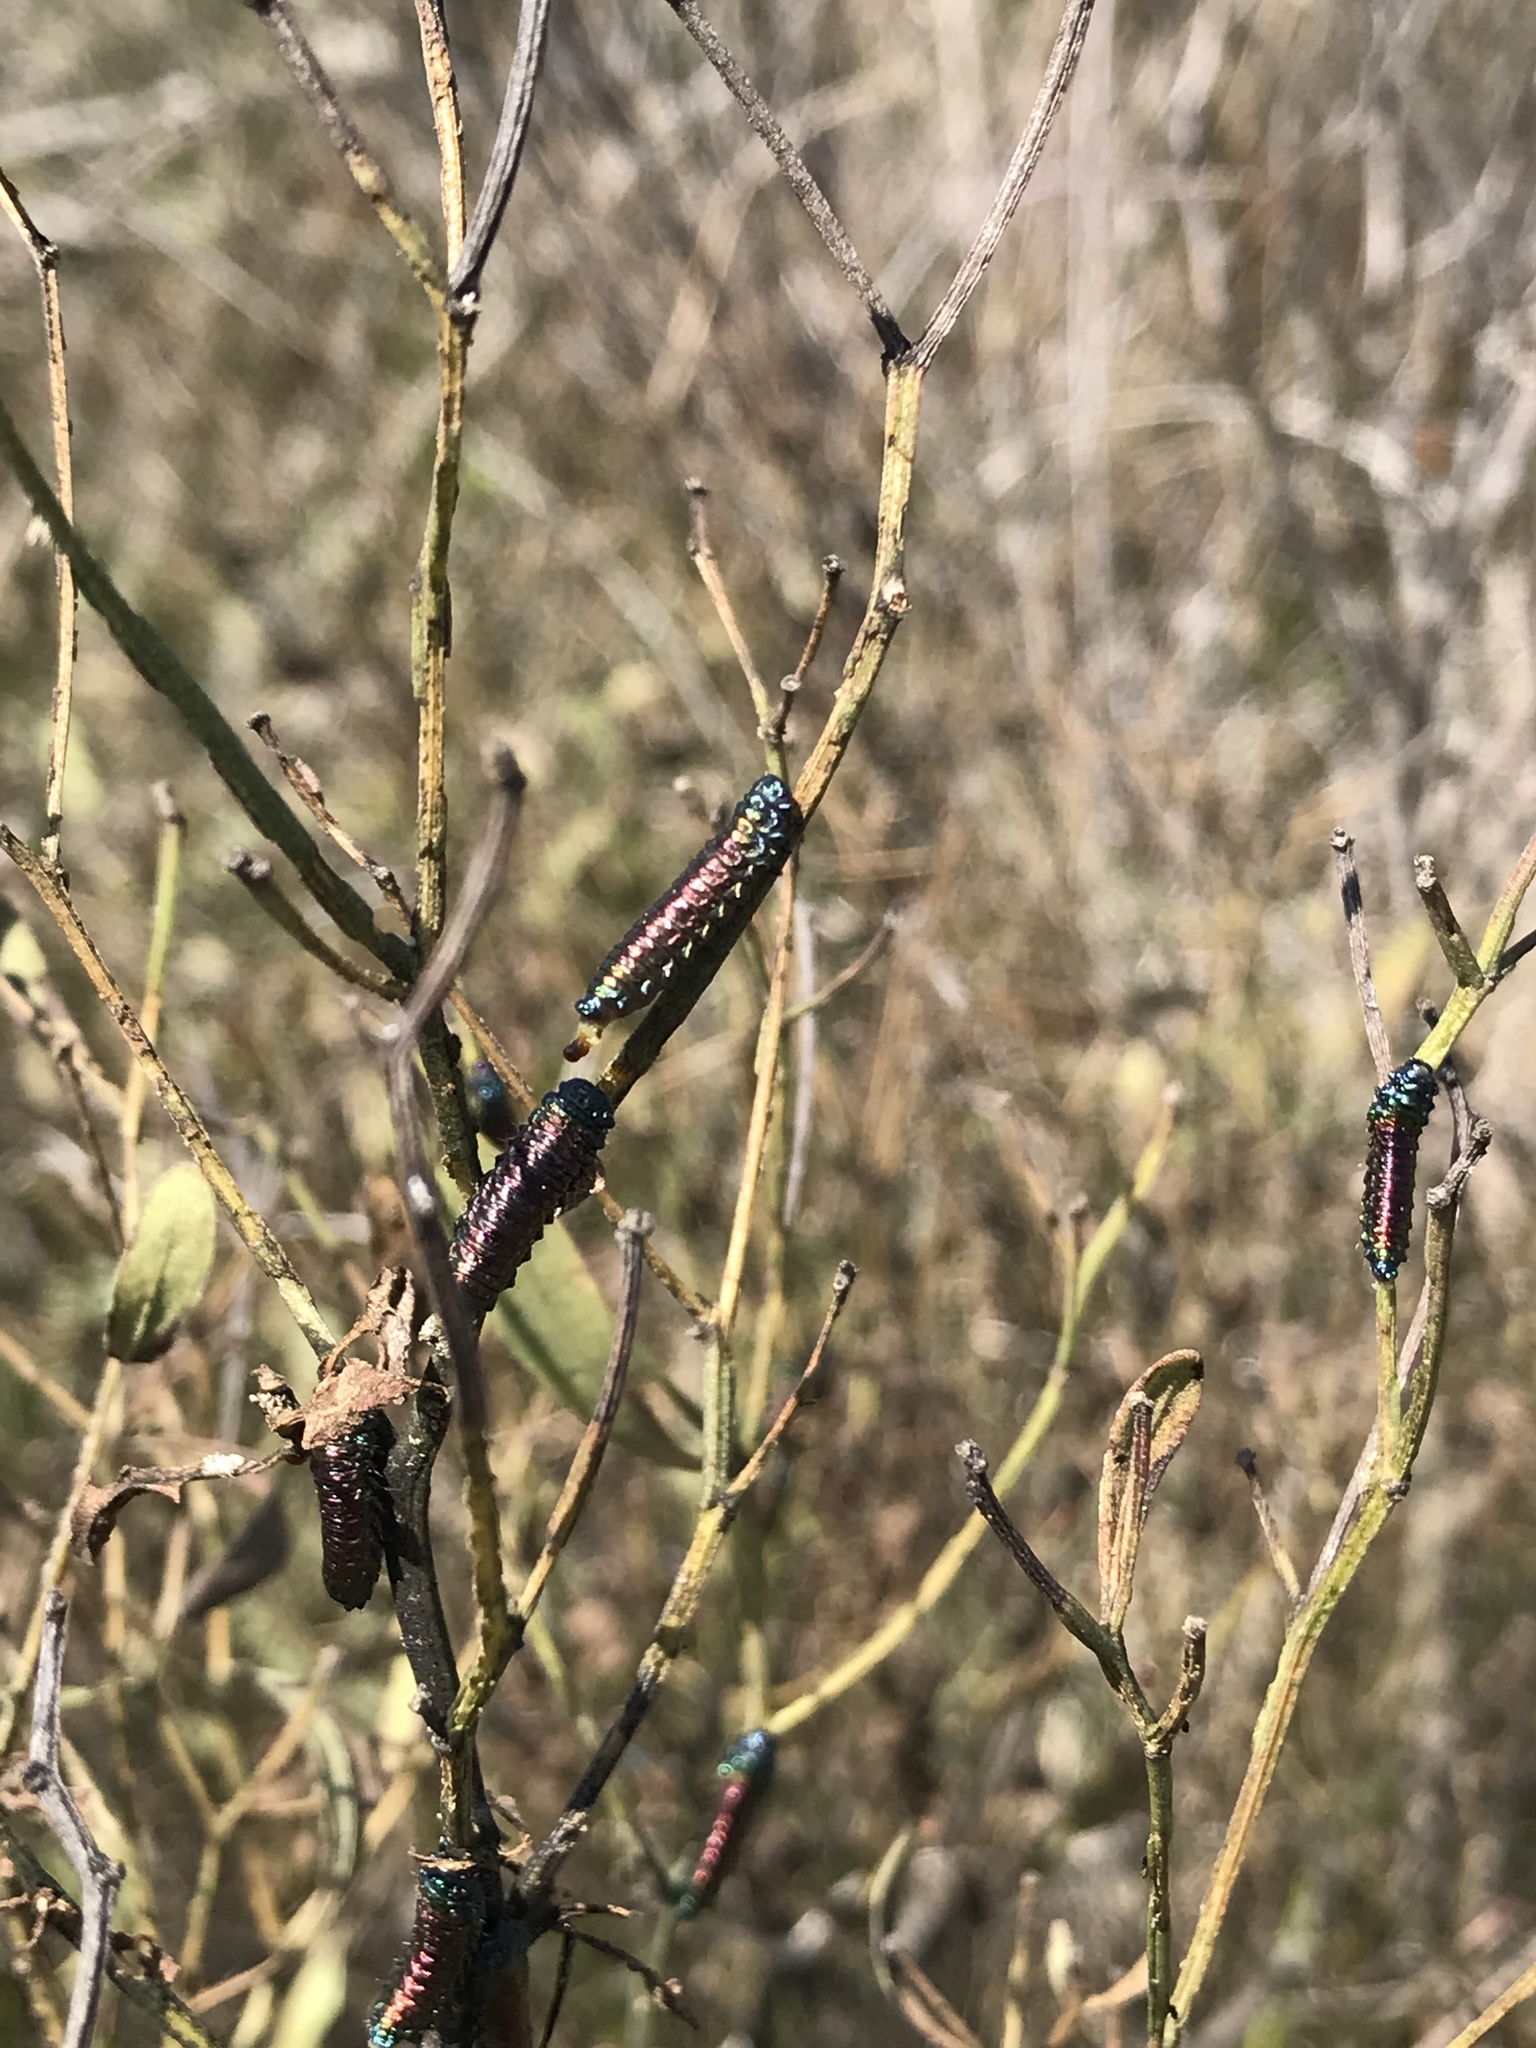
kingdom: Animalia
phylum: Arthropoda
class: Insecta
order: Coleoptera
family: Chrysomelidae
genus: Trirhabda
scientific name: Trirhabda bacharidis
